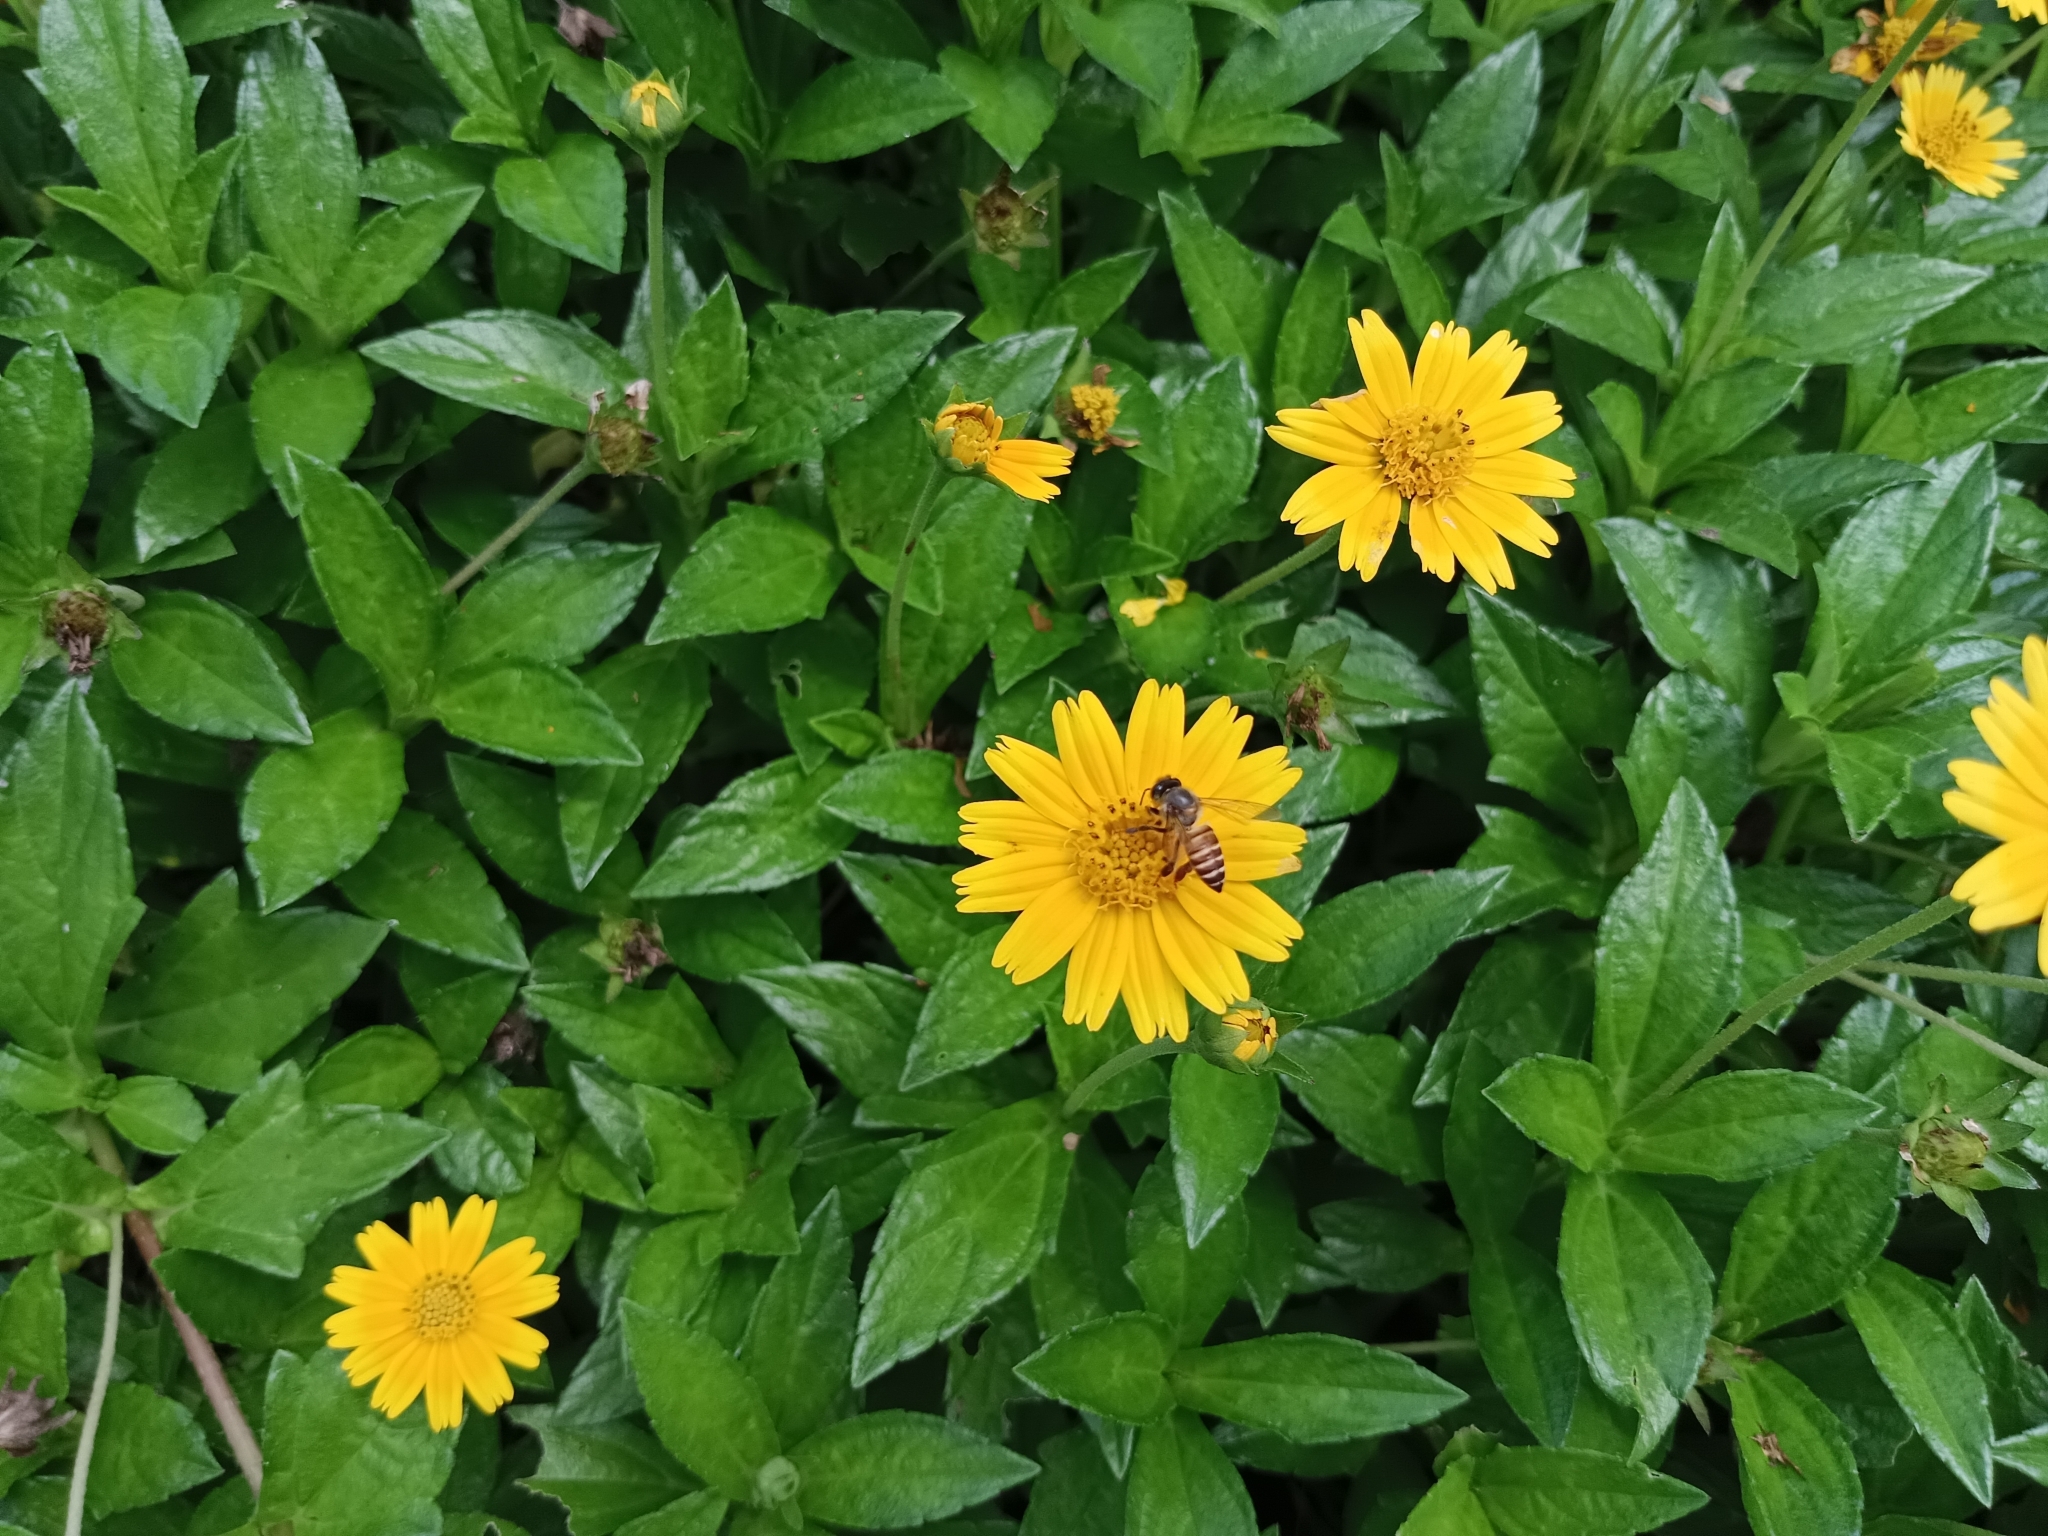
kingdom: Plantae
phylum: Tracheophyta
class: Magnoliopsida
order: Asterales
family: Asteraceae
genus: Sphagneticola
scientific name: Sphagneticola trilobata
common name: Bay biscayne creeping-oxeye
